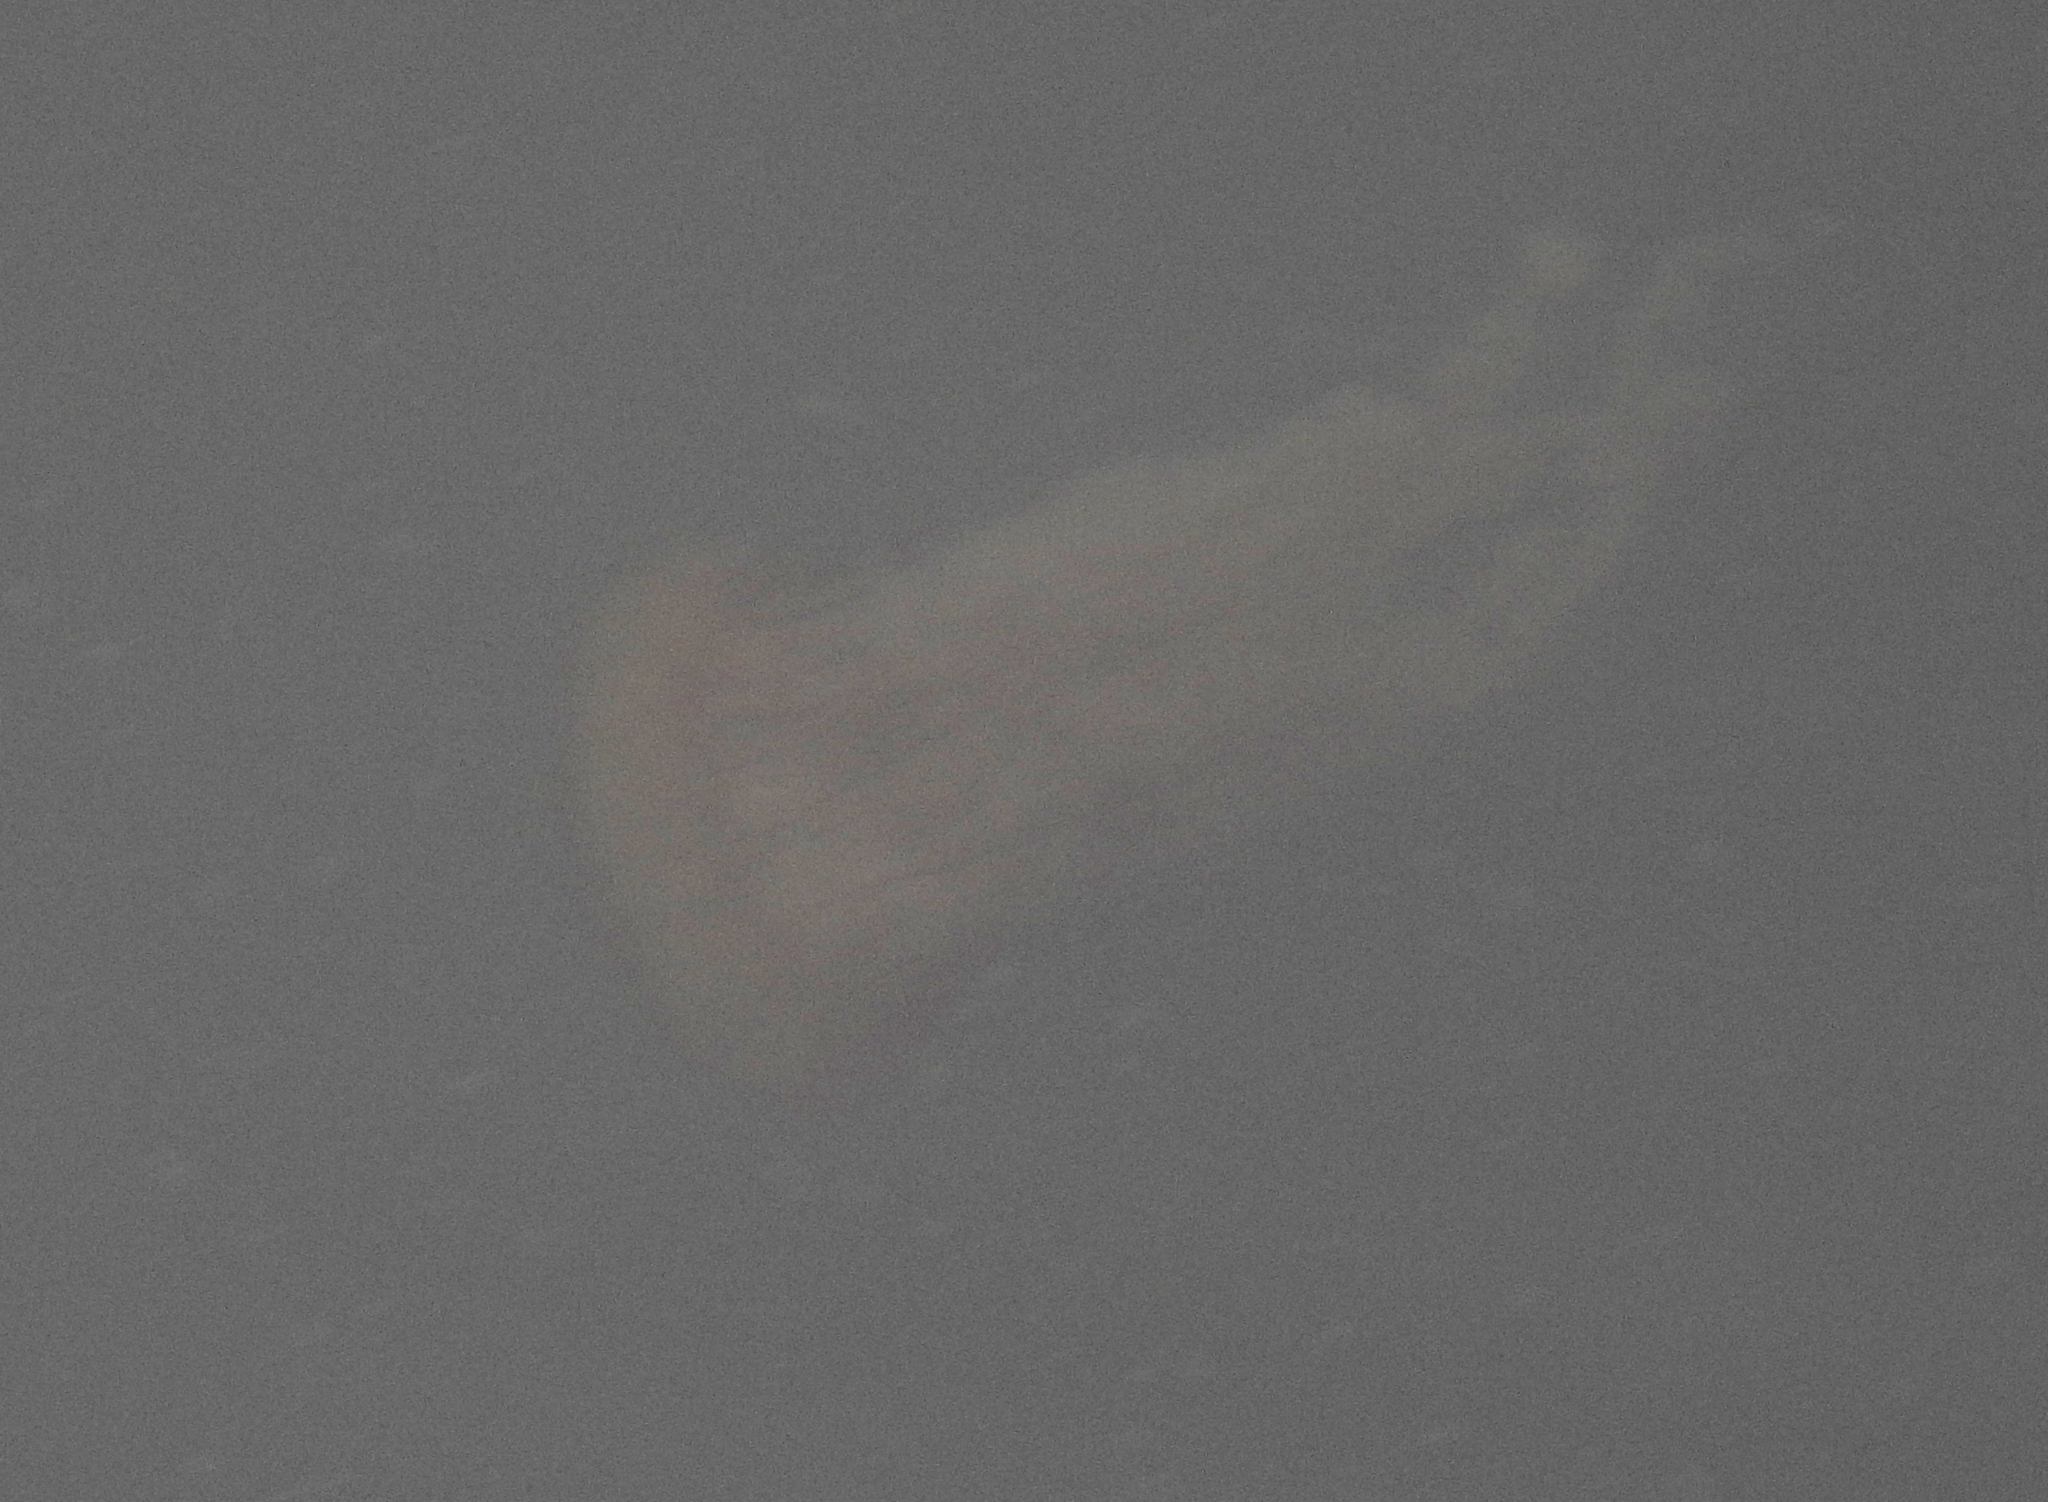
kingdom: Animalia
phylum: Cnidaria
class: Scyphozoa
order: Semaeostomeae
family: Pelagiidae
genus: Chrysaora
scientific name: Chrysaora fuscescens
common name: Sea nettle
